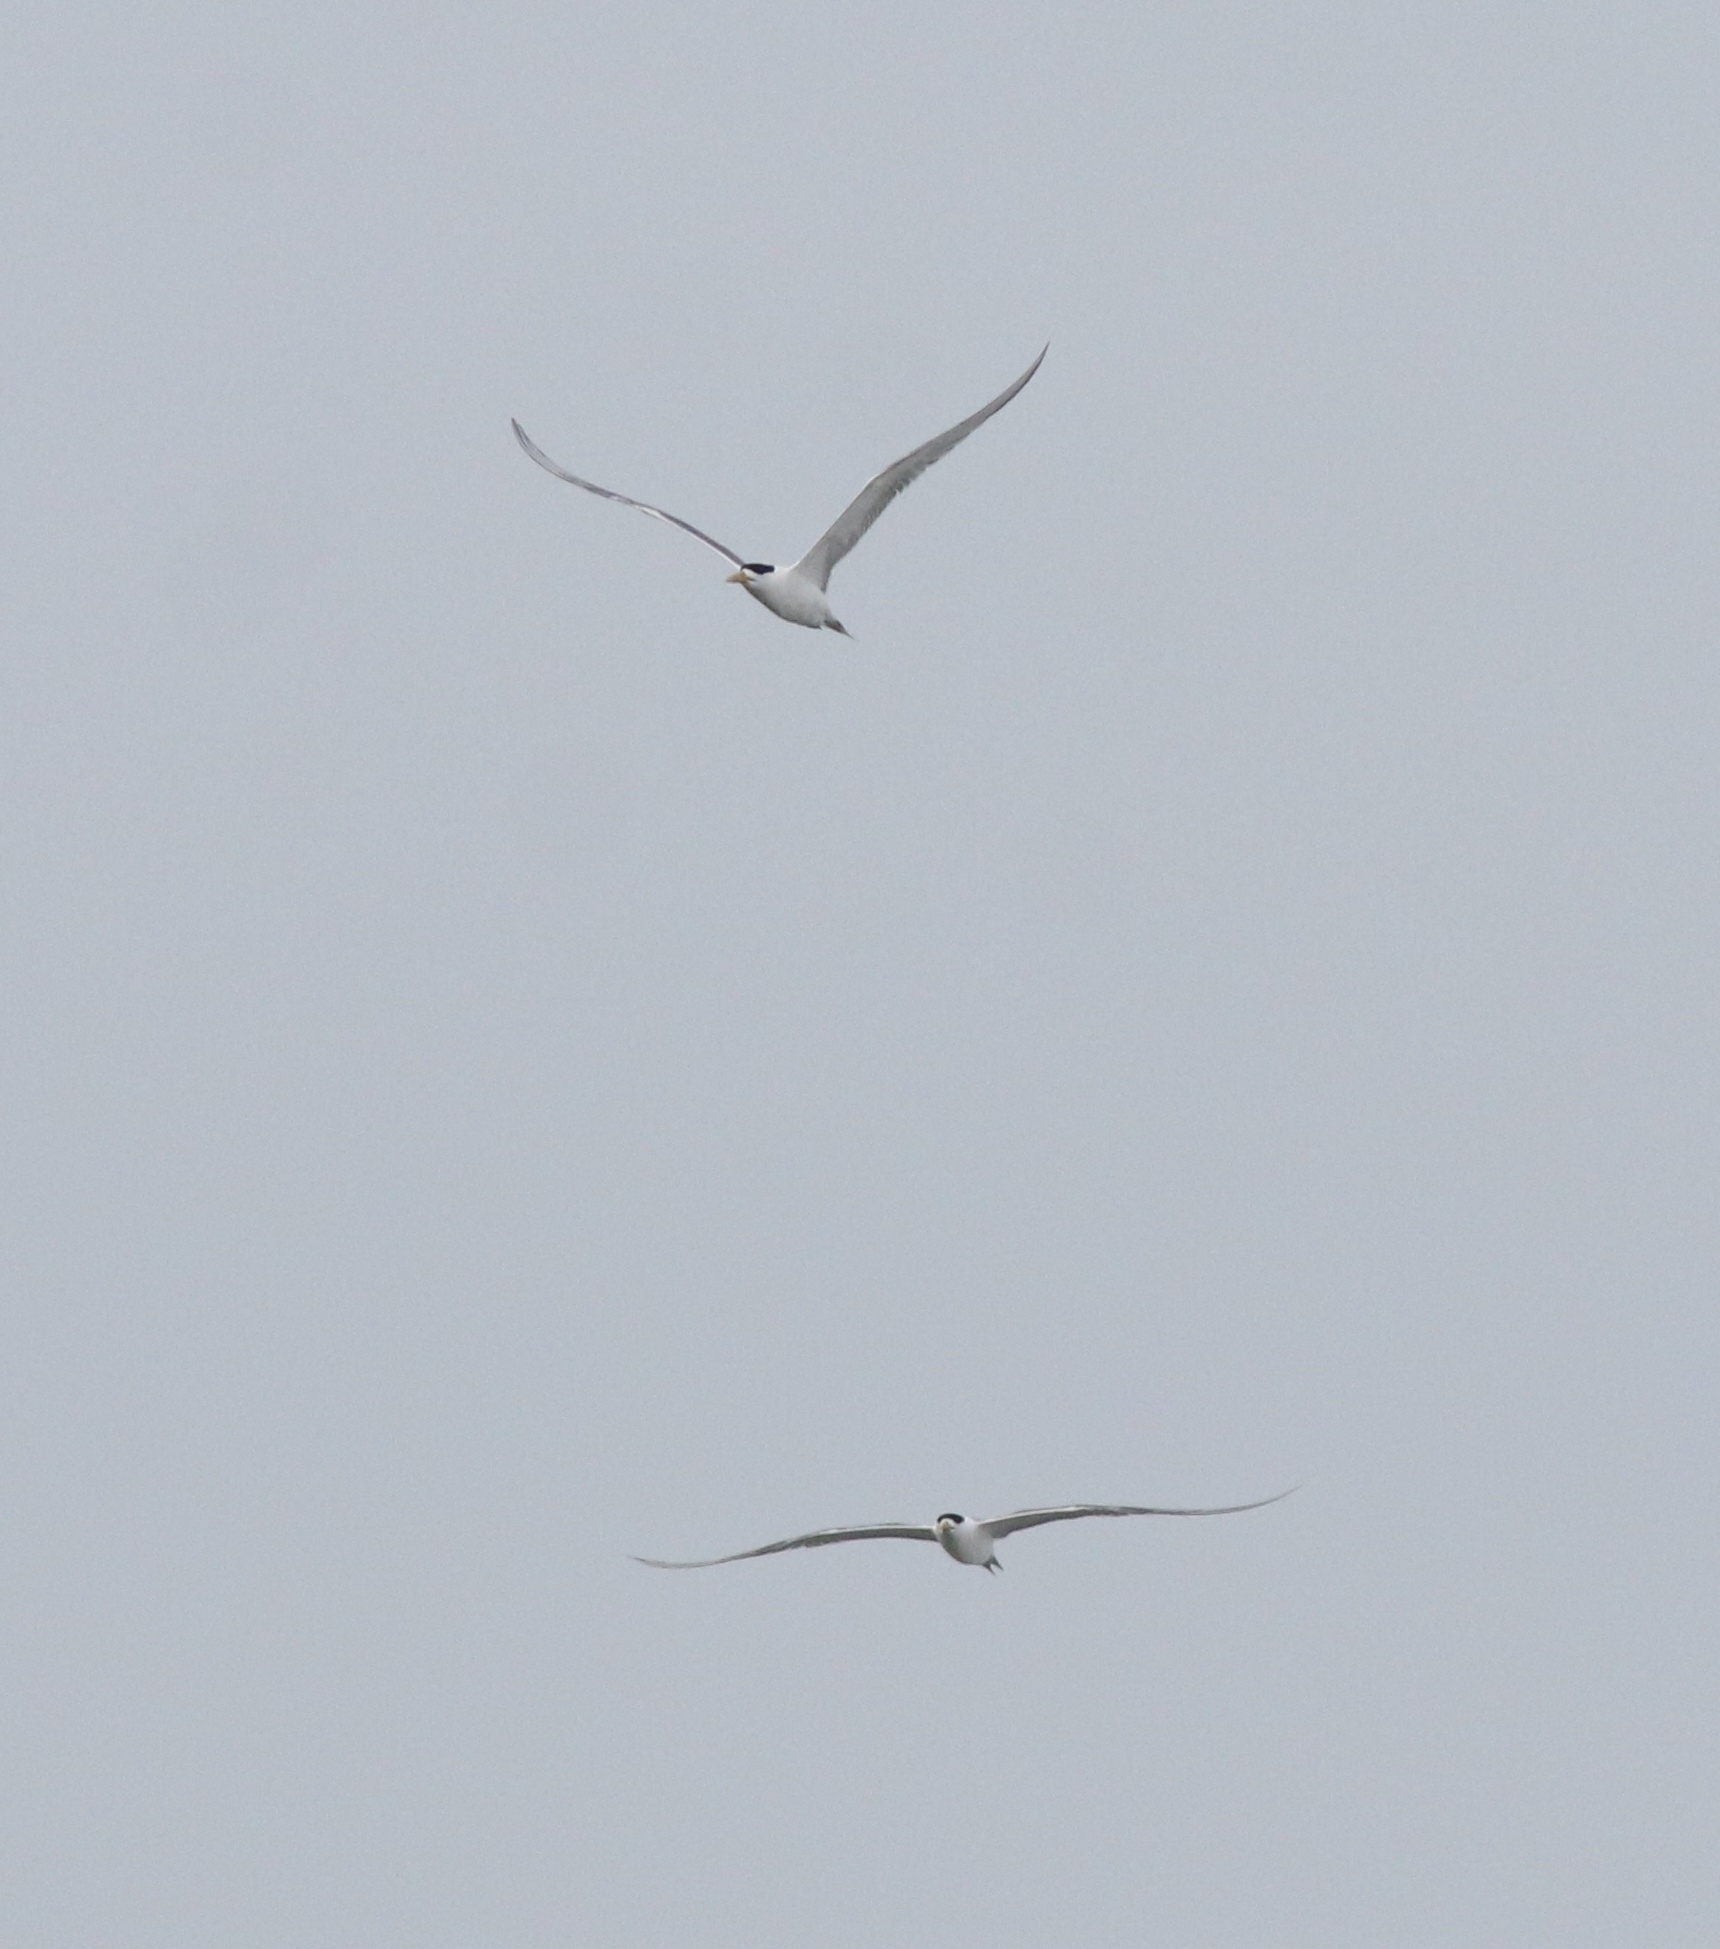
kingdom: Animalia
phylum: Chordata
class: Aves
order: Charadriiformes
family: Laridae
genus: Thalasseus
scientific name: Thalasseus bergii
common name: Greater crested tern
